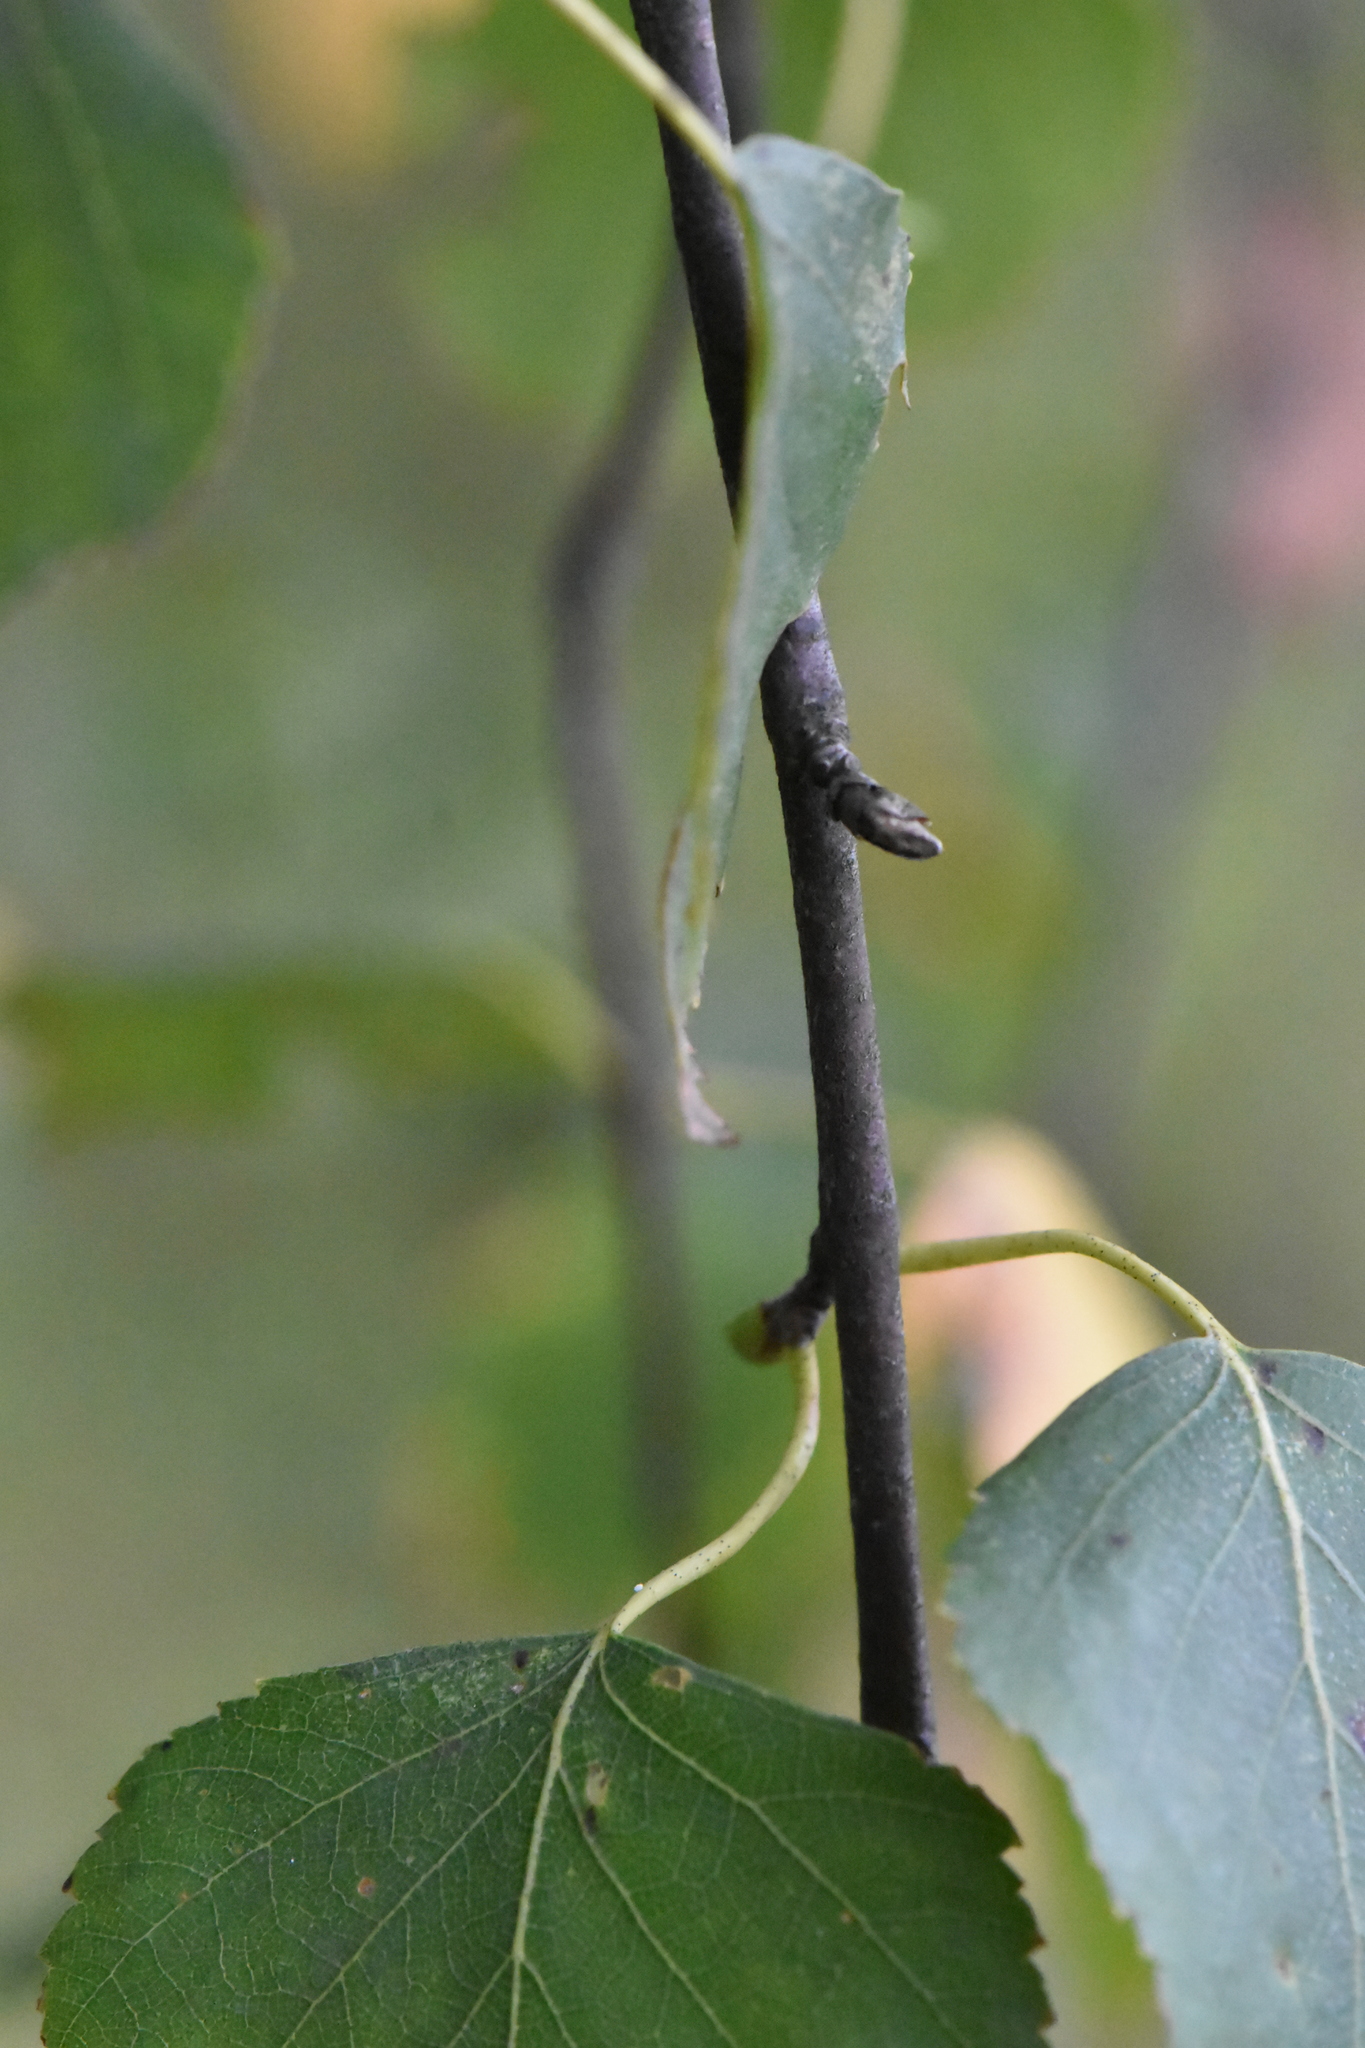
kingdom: Plantae
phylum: Tracheophyta
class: Magnoliopsida
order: Fagales
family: Betulaceae
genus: Betula
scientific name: Betula pendula
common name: Silver birch
